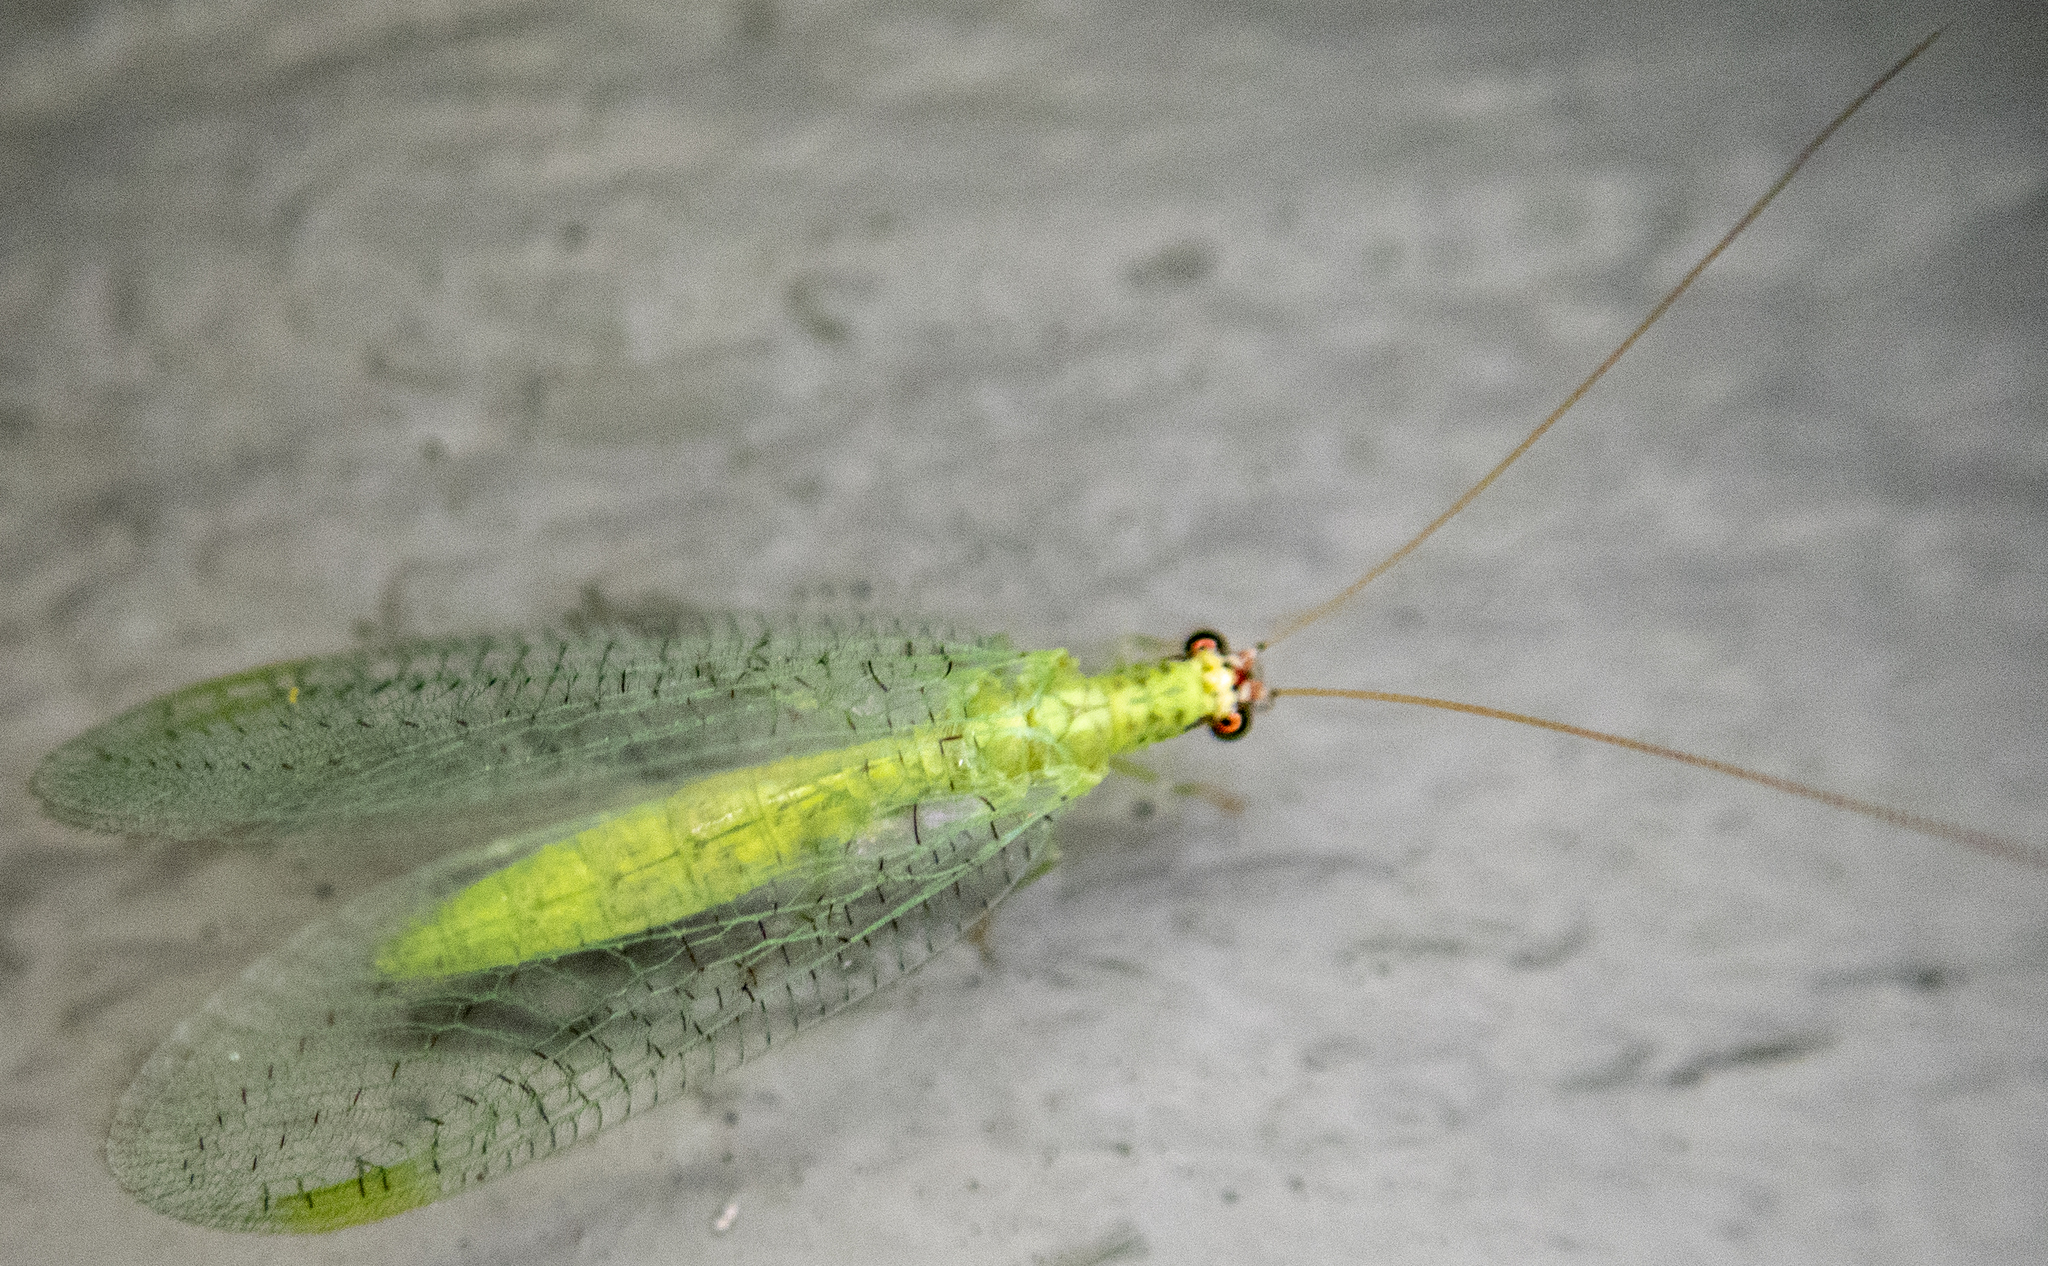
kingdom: Animalia
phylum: Arthropoda
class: Insecta
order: Neuroptera
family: Chrysopidae
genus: Chrysopa
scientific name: Chrysopa oculata
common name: Golden-eyed lacewing
